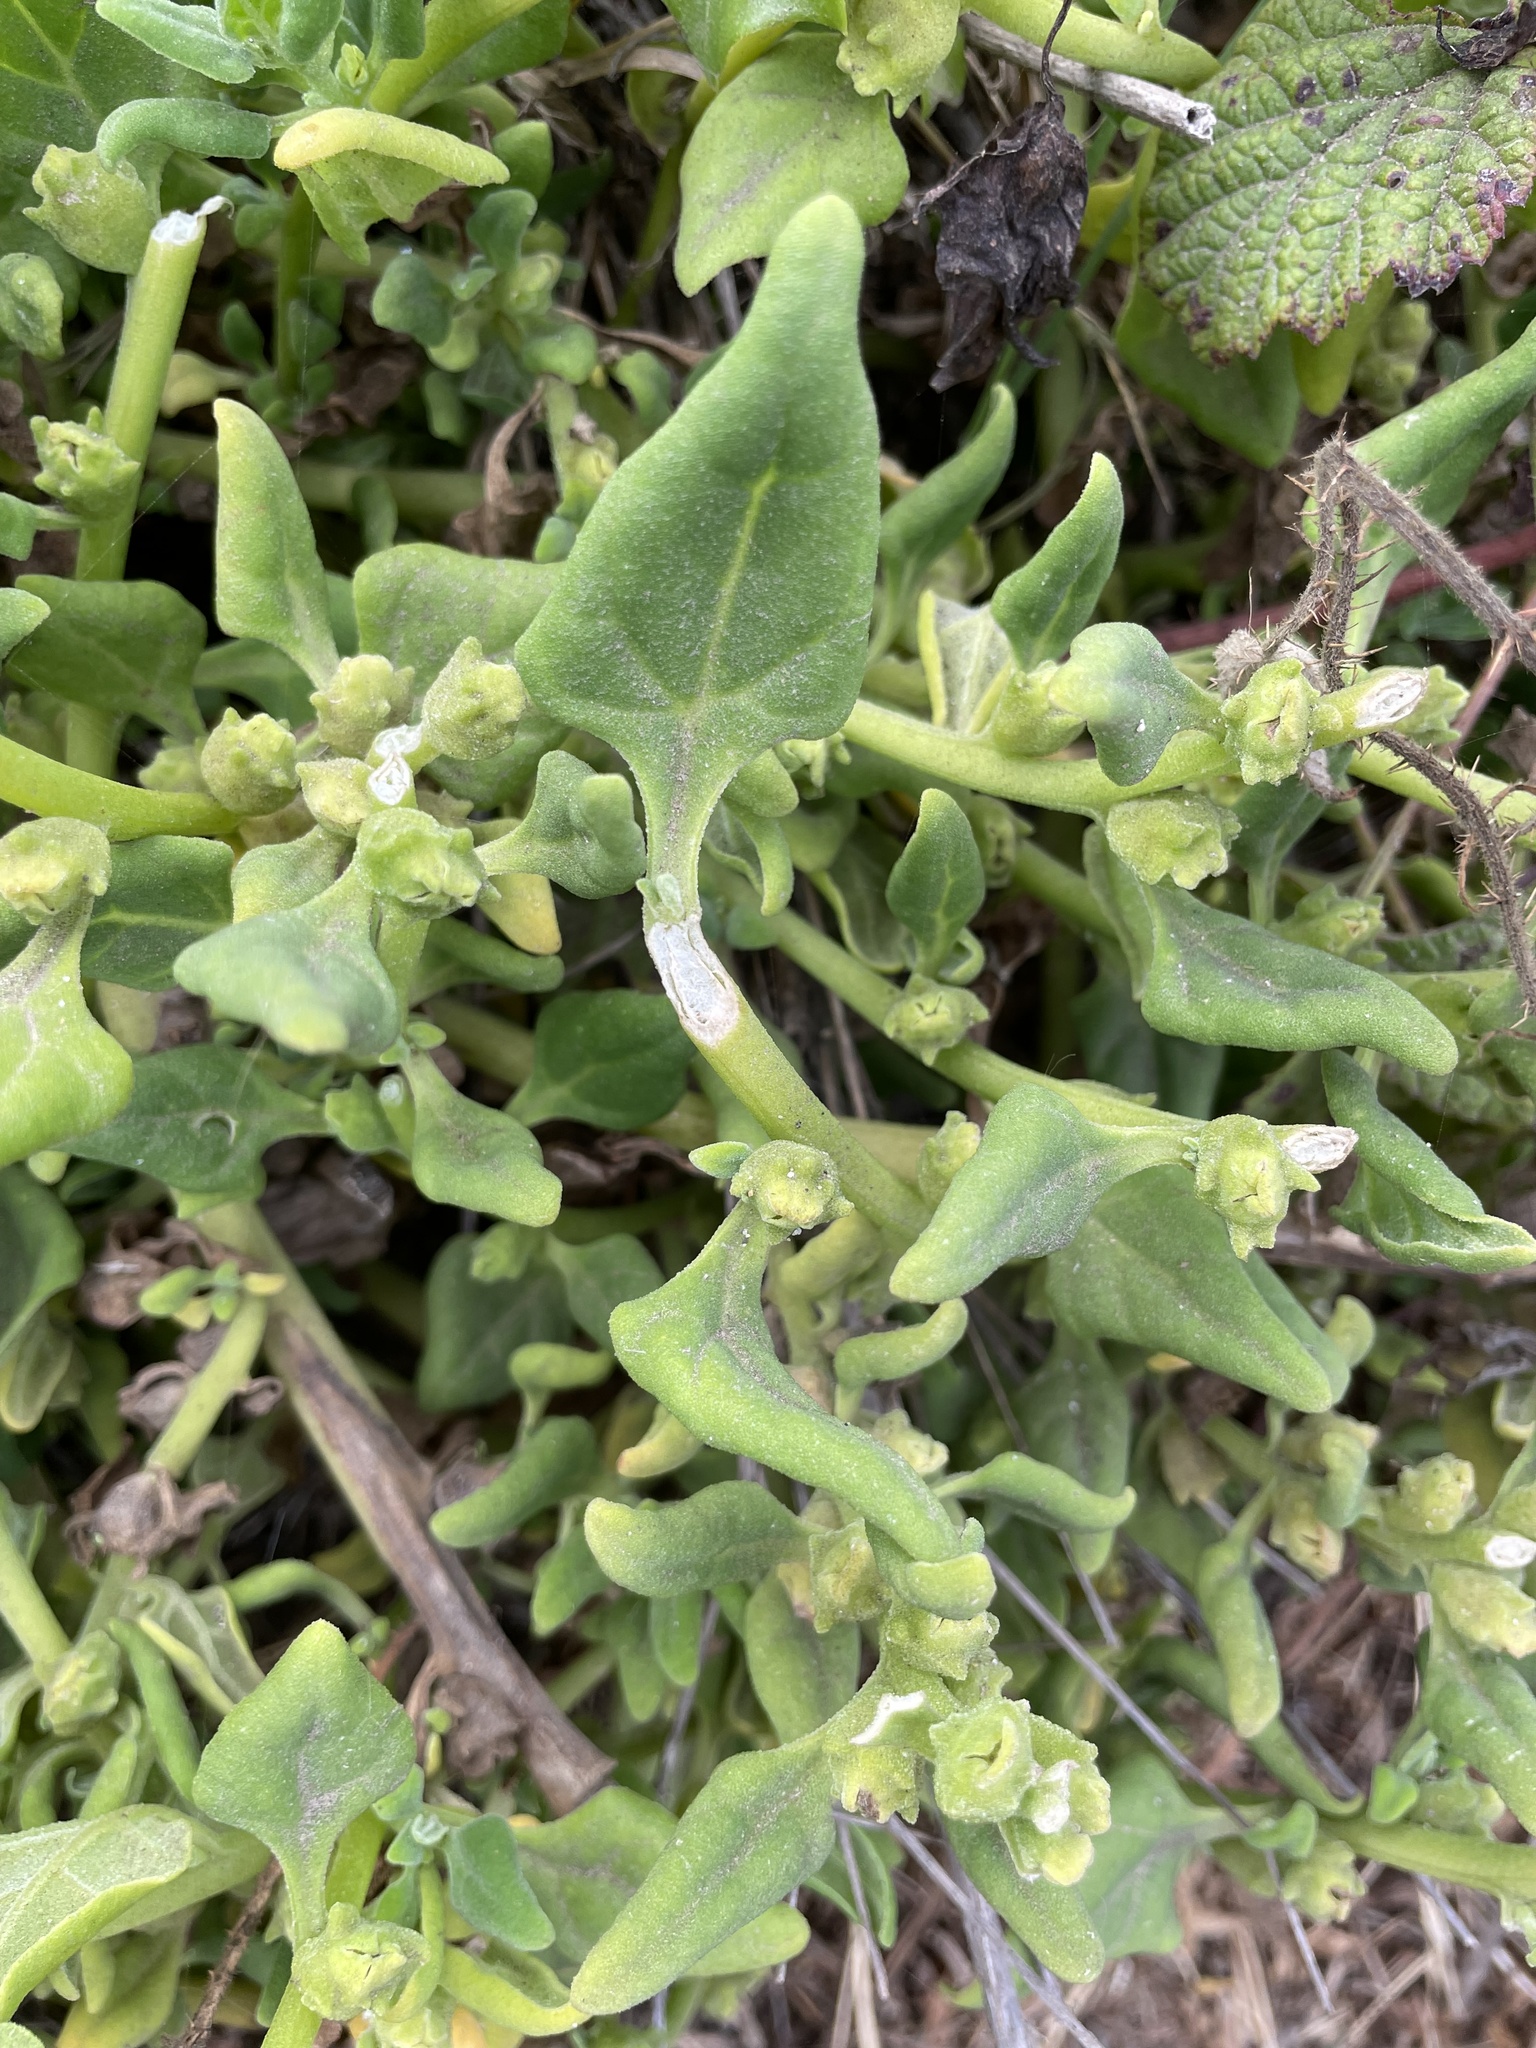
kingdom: Plantae
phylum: Tracheophyta
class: Magnoliopsida
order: Caryophyllales
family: Aizoaceae
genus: Tetragonia
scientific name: Tetragonia tetragonoides
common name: New zealand-spinach
